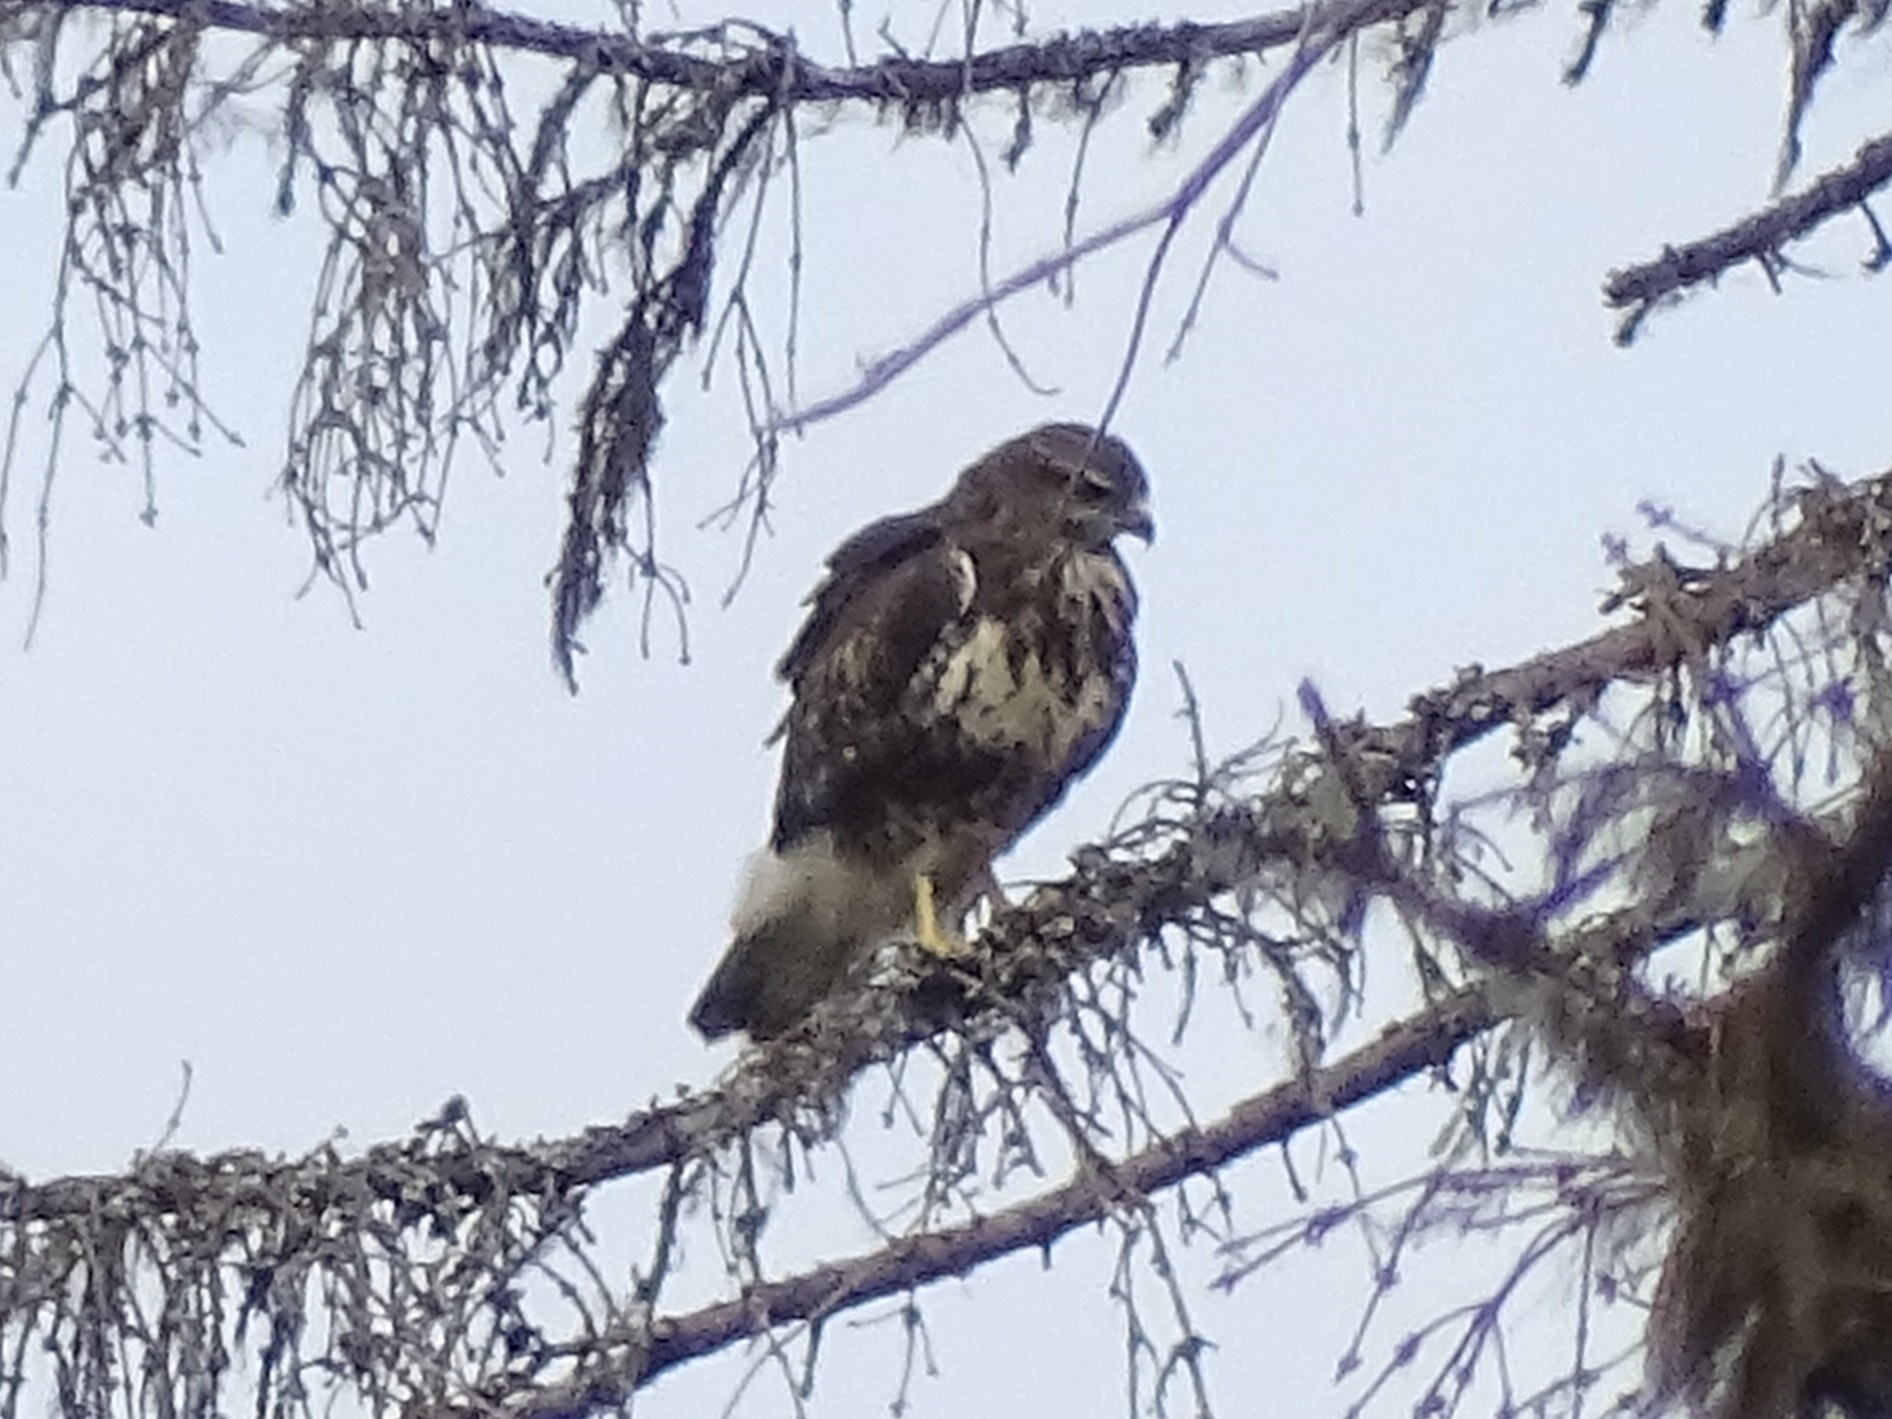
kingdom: Animalia
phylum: Chordata
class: Aves
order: Accipitriformes
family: Accipitridae
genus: Buteo
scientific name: Buteo buteo
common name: Common buzzard
